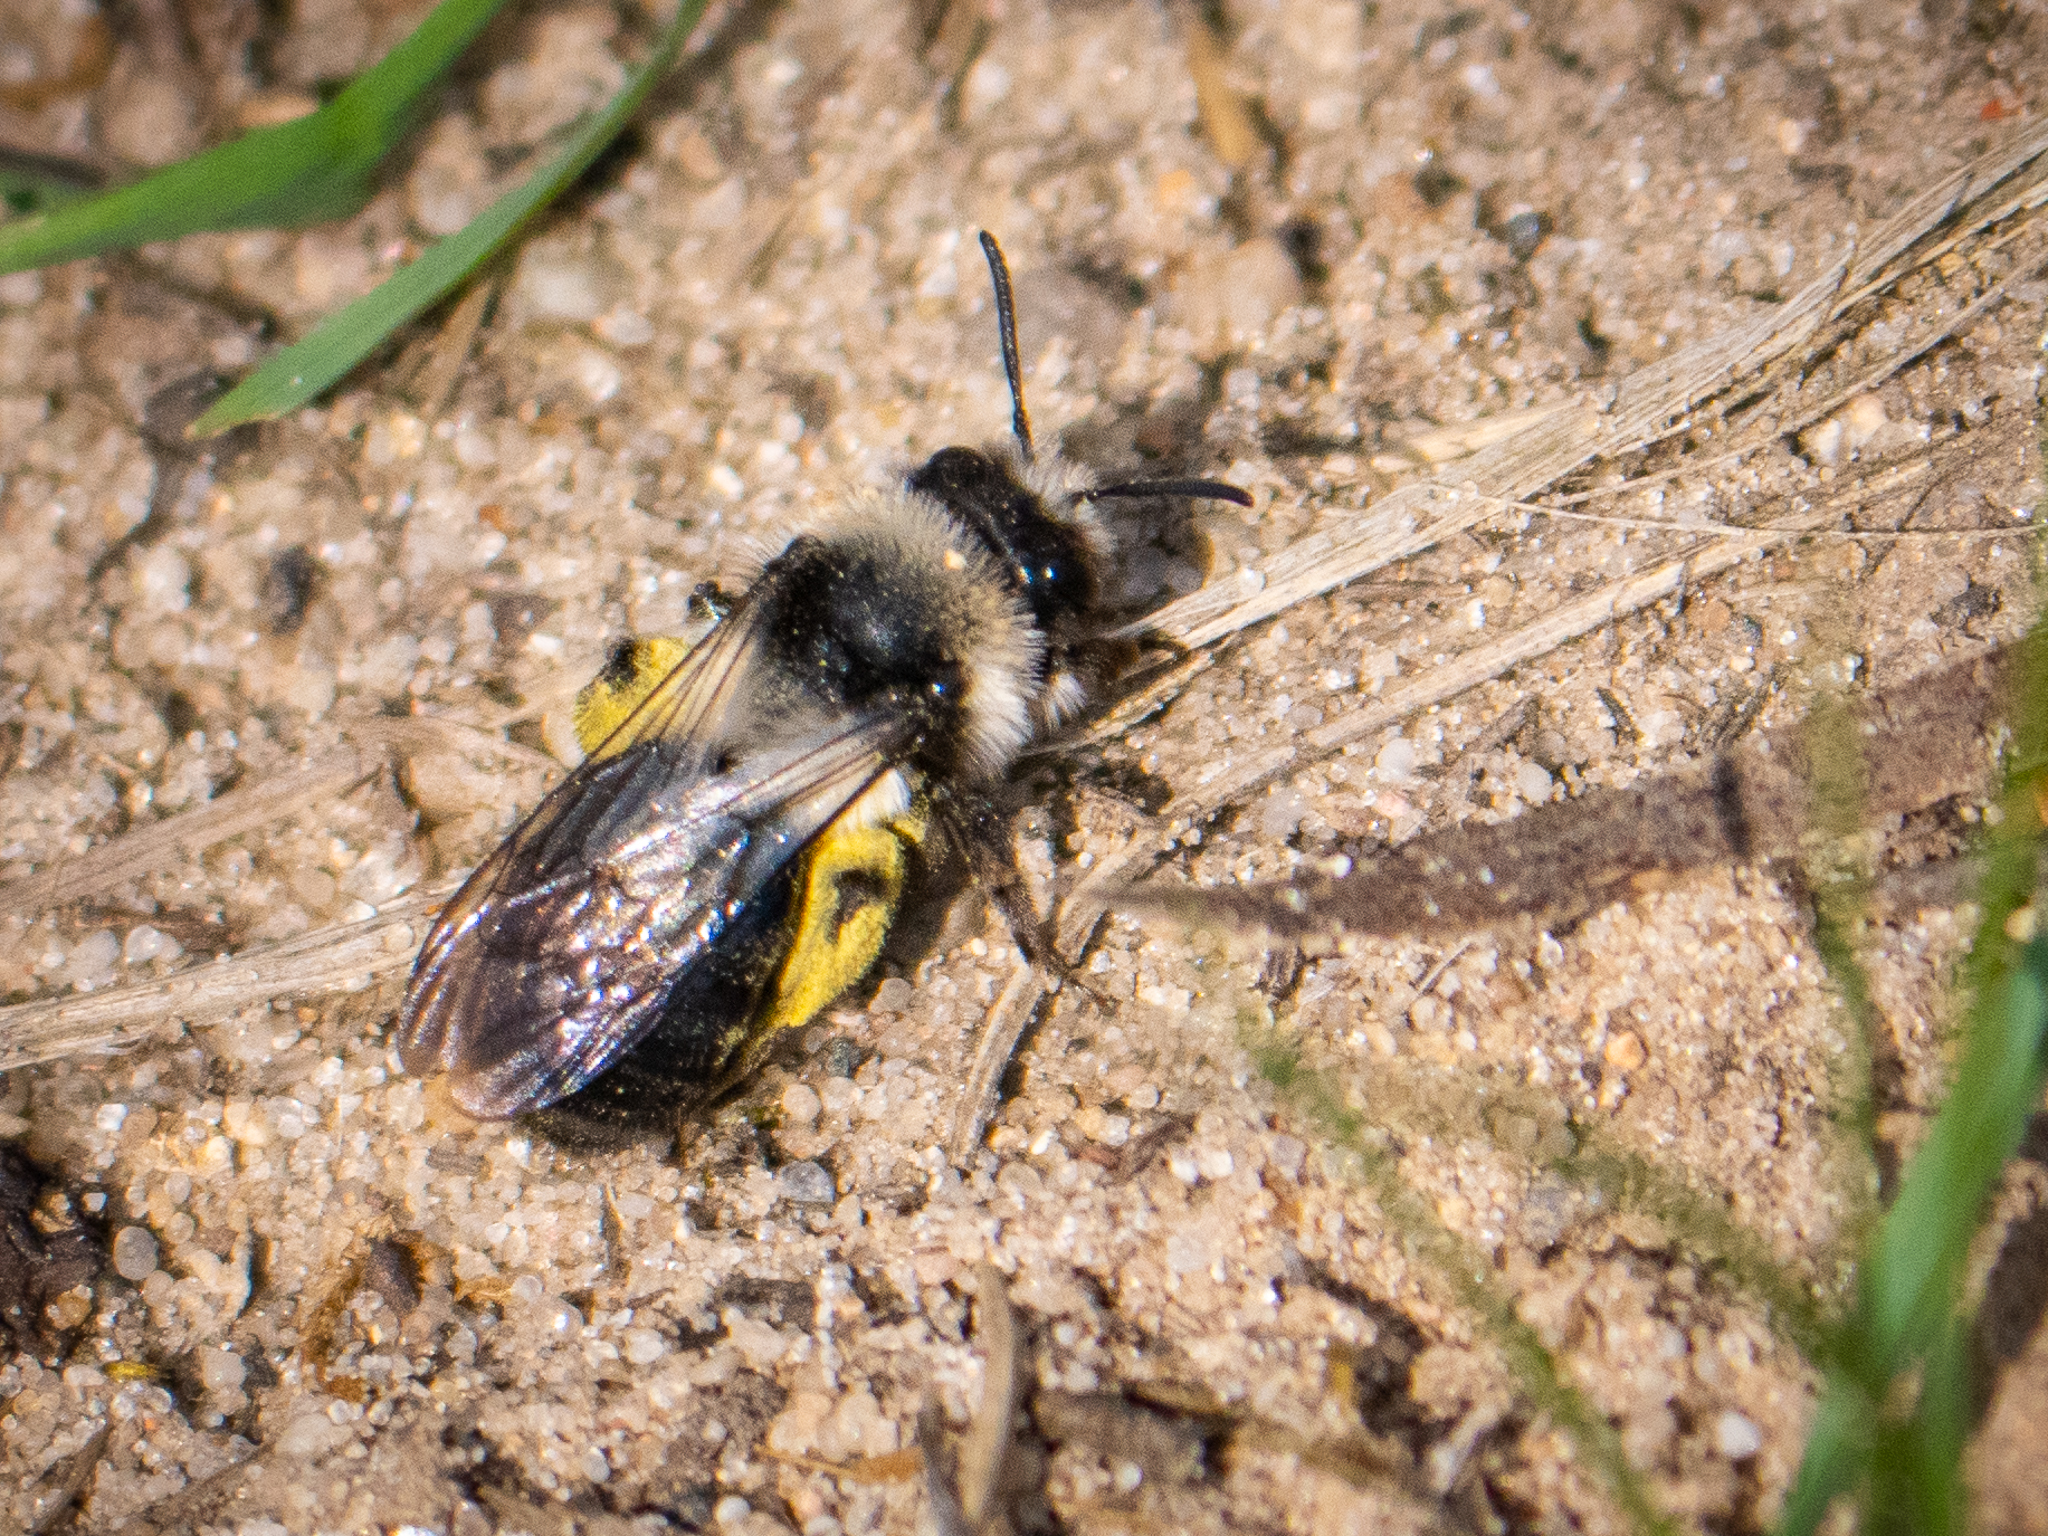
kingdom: Animalia
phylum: Arthropoda
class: Insecta
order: Hymenoptera
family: Andrenidae
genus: Andrena
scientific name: Andrena cineraria
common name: Ashy mining bee
